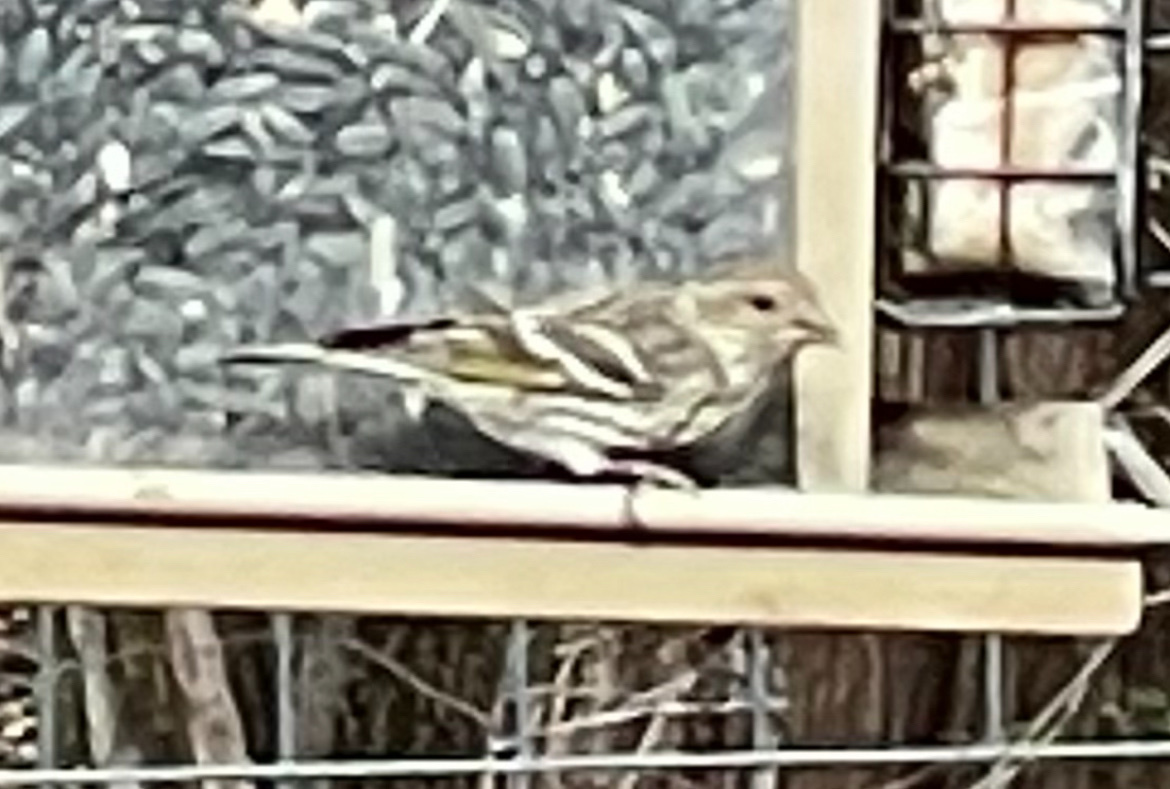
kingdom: Animalia
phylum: Chordata
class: Aves
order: Passeriformes
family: Fringillidae
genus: Spinus
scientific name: Spinus pinus
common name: Pine siskin
